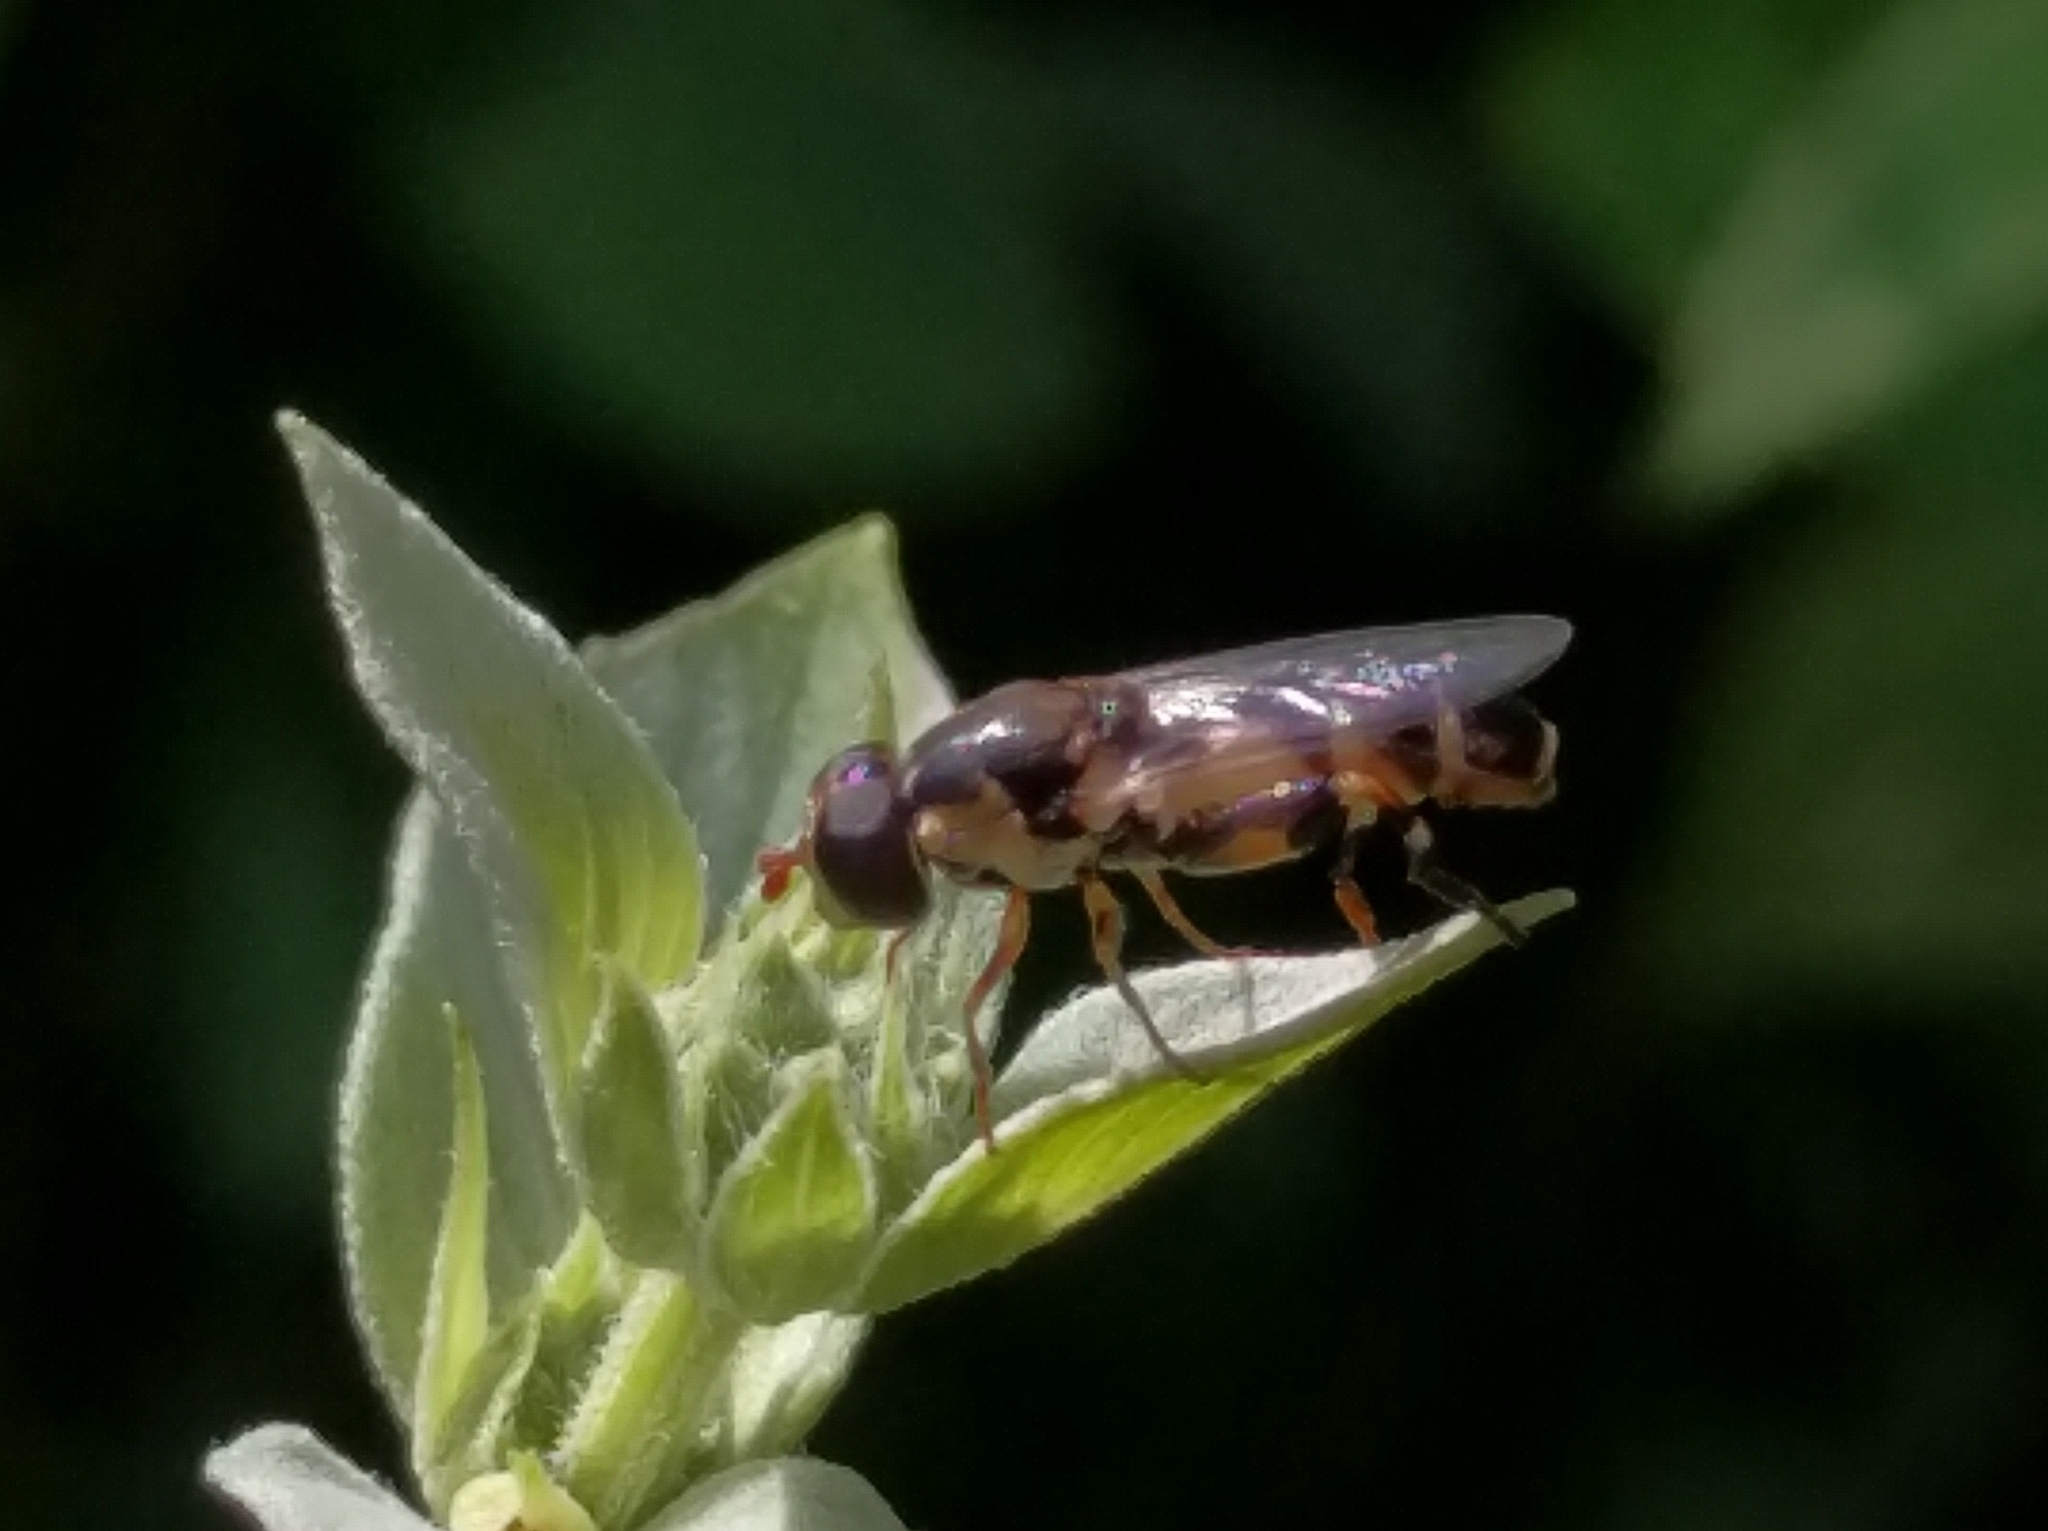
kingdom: Animalia
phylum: Arthropoda
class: Insecta
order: Diptera
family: Syrphidae
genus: Syritta
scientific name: Syritta pipiens
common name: Hover fly
